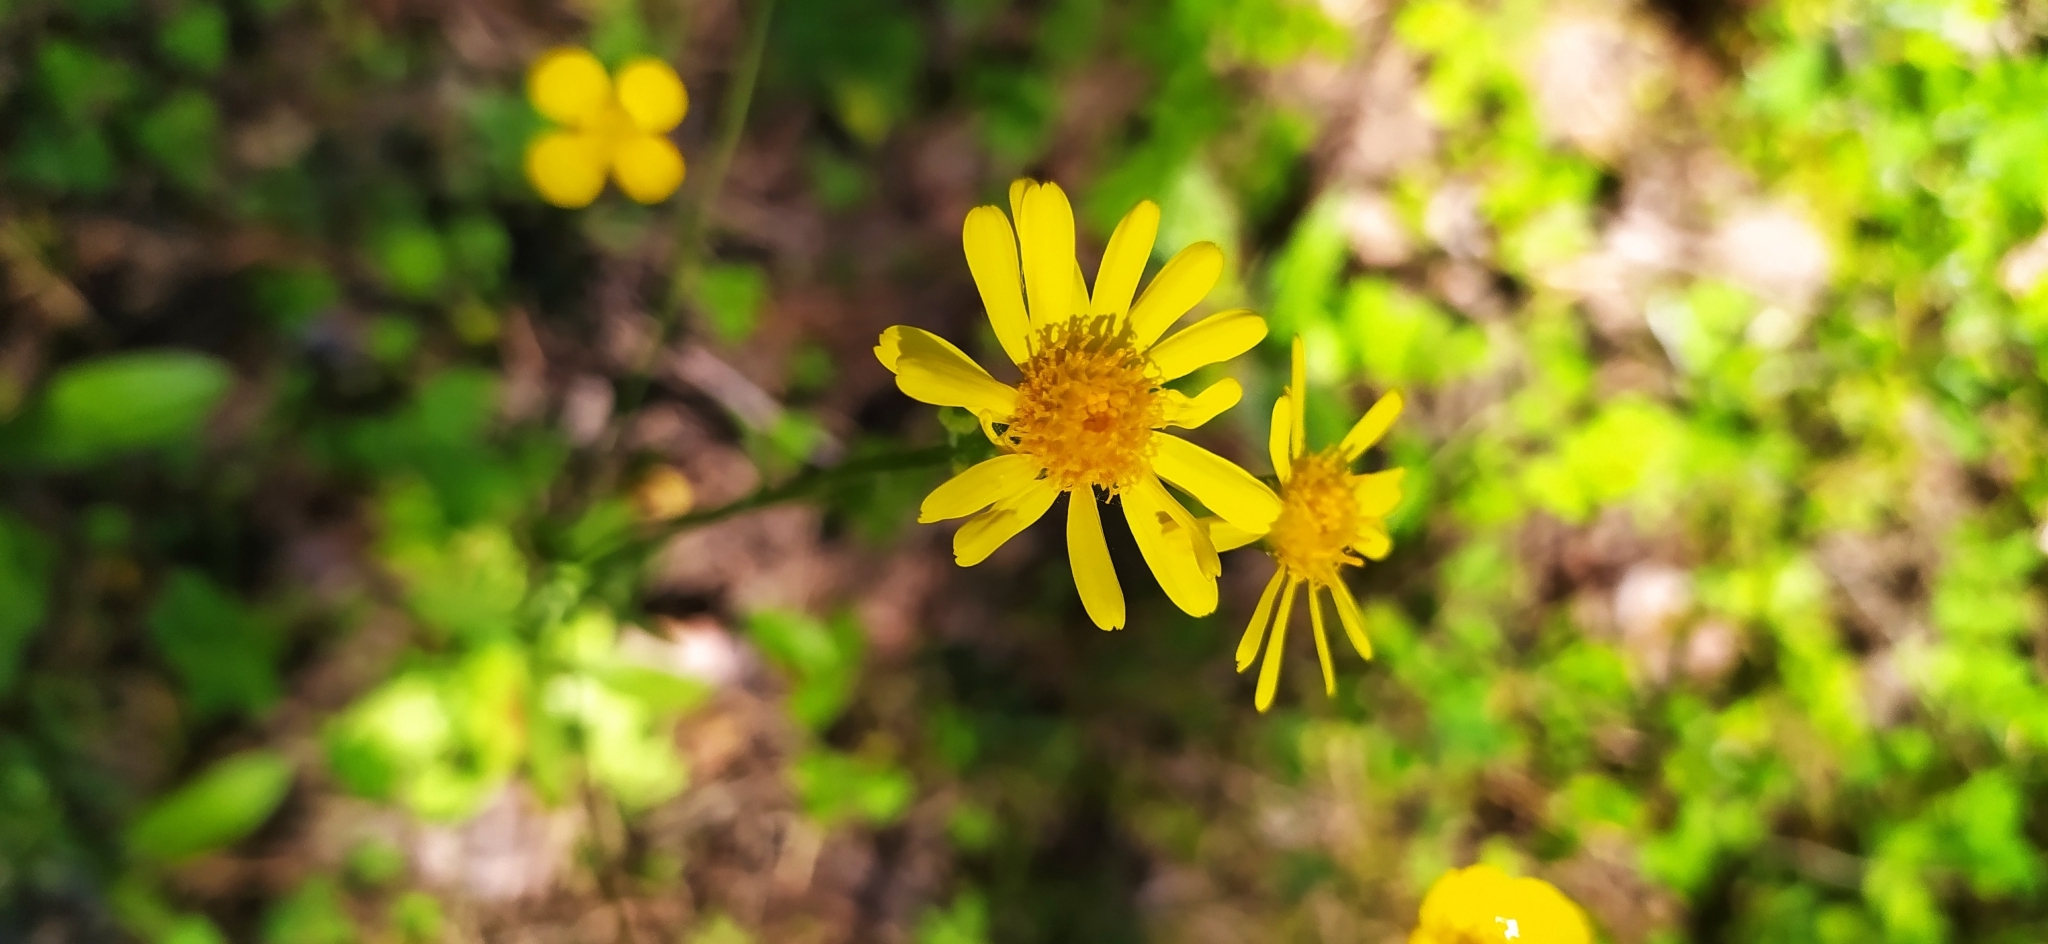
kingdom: Plantae
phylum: Tracheophyta
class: Magnoliopsida
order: Asterales
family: Asteraceae
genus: Tephroseris
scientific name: Tephroseris integrifolia
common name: Field fleawort
